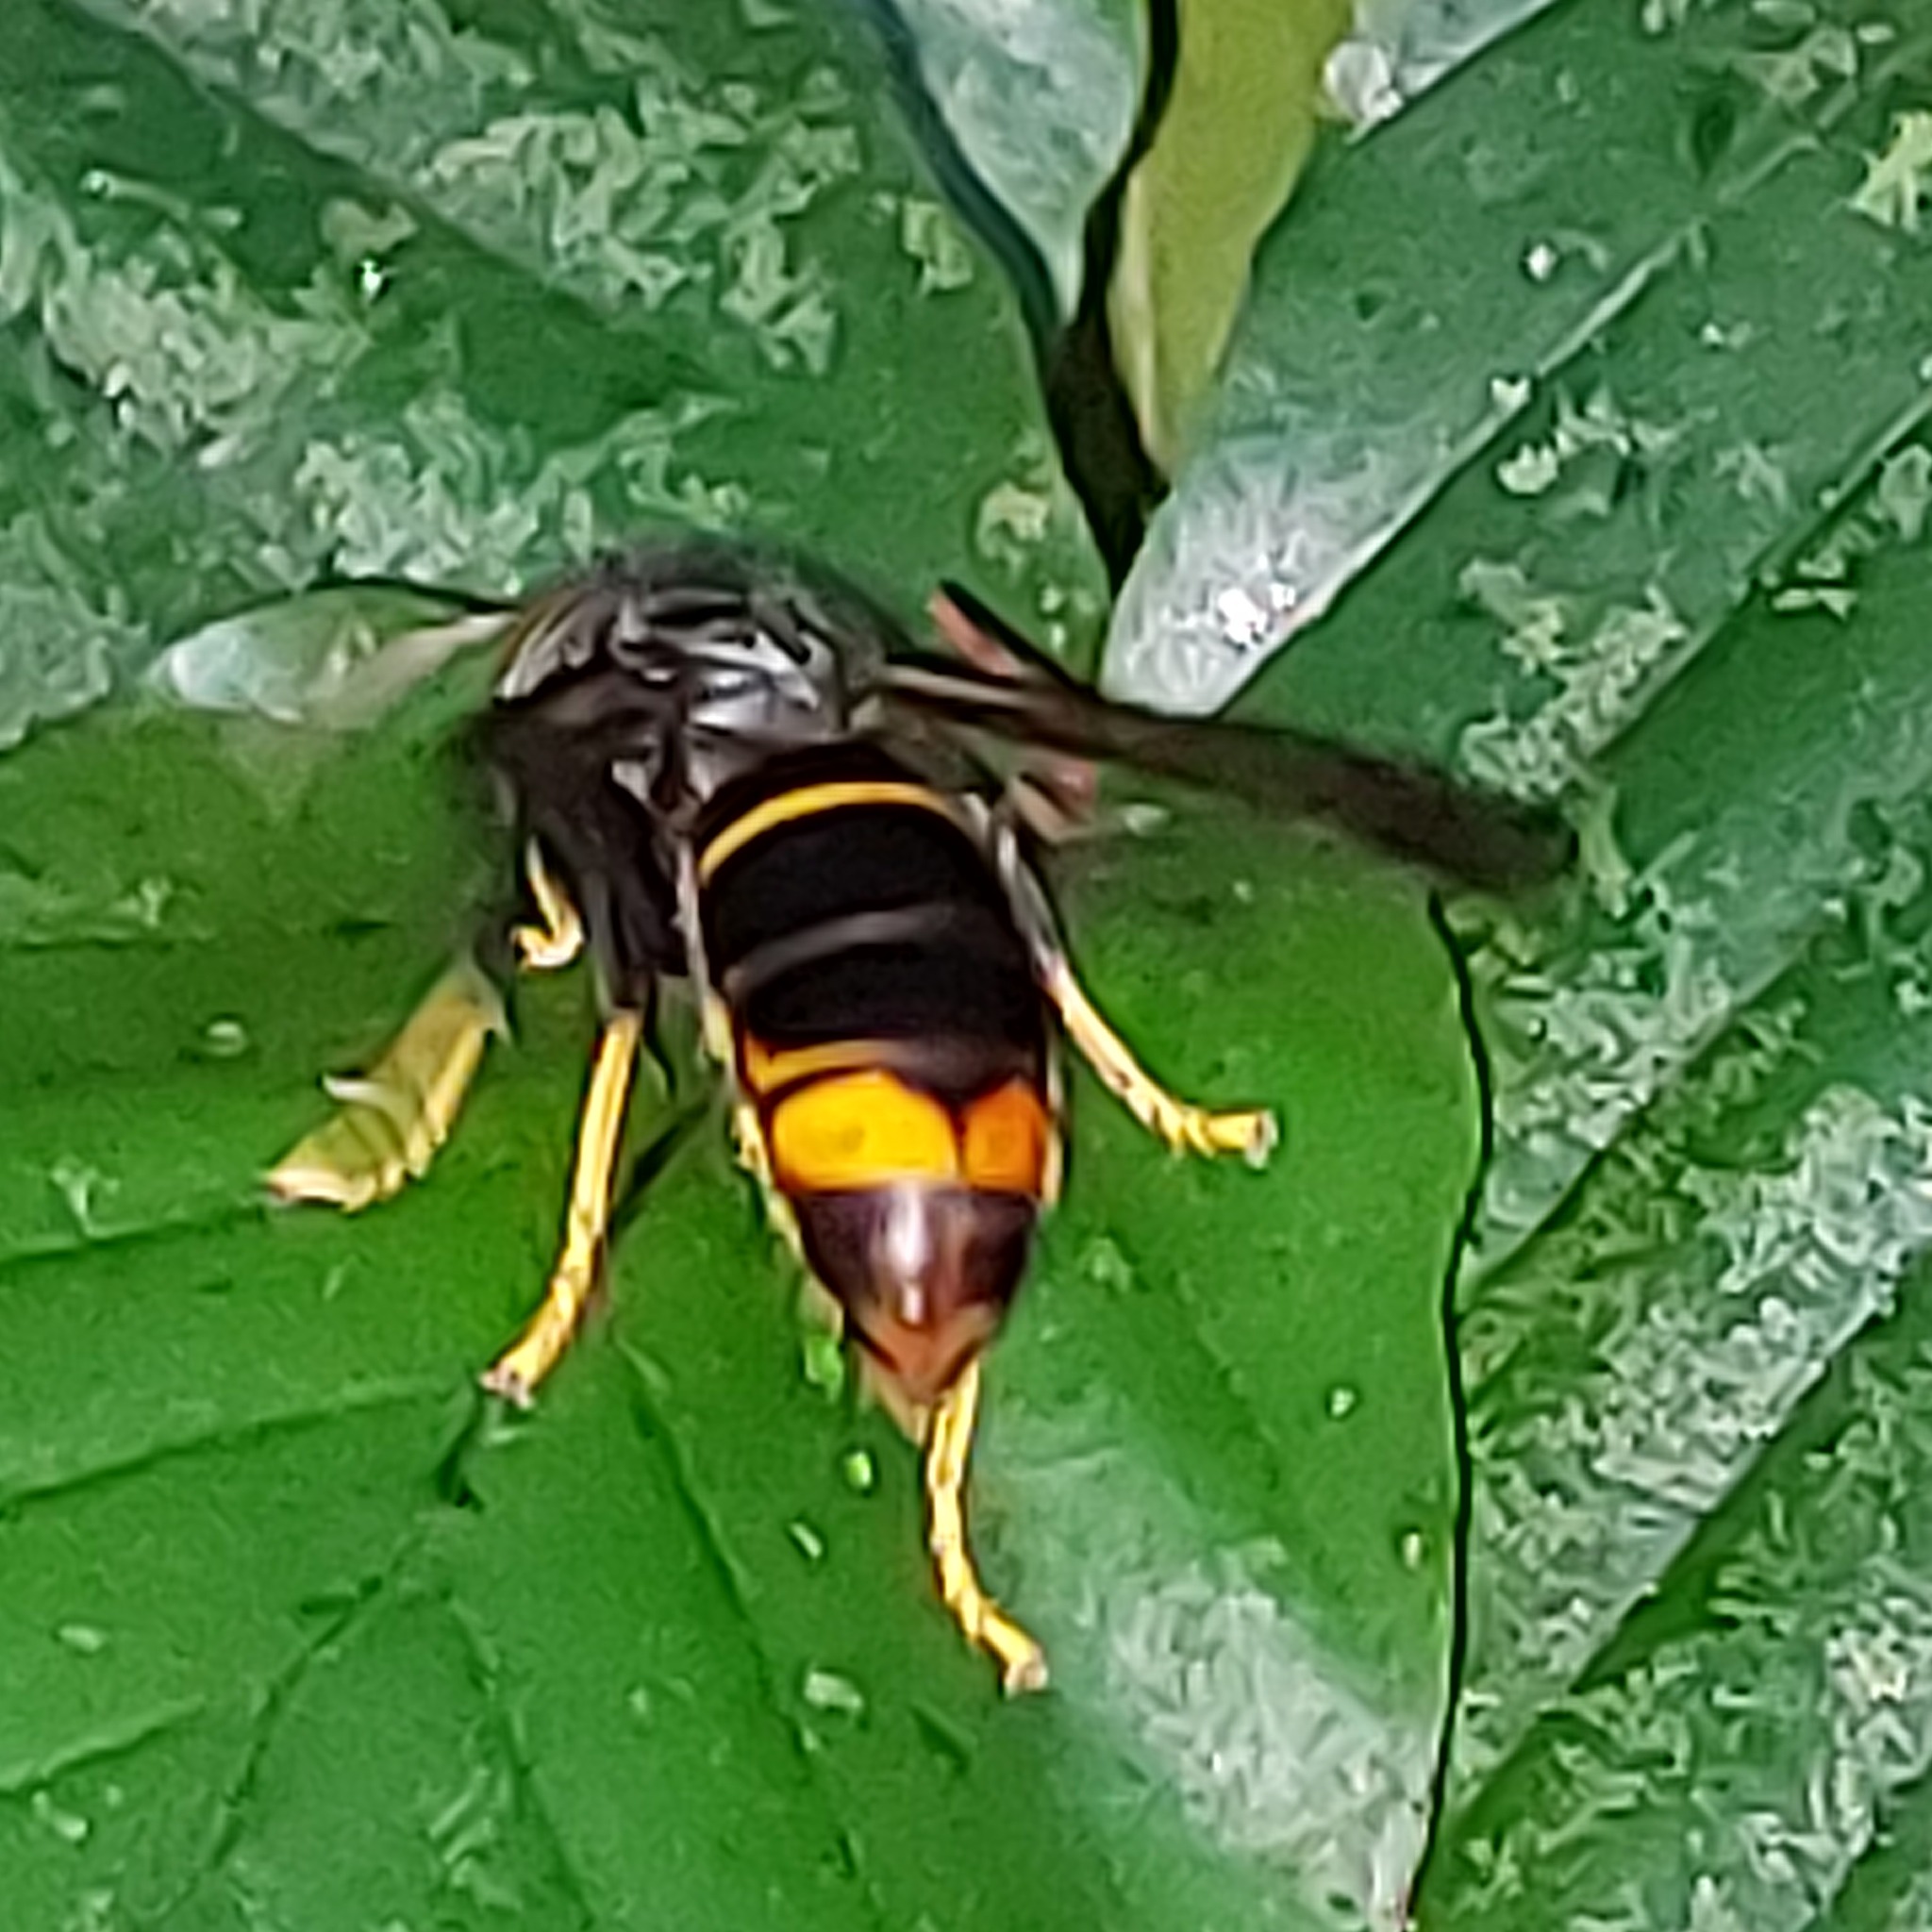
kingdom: Animalia
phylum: Arthropoda
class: Insecta
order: Hymenoptera
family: Vespidae
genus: Vespa
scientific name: Vespa velutina
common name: Asian hornet
